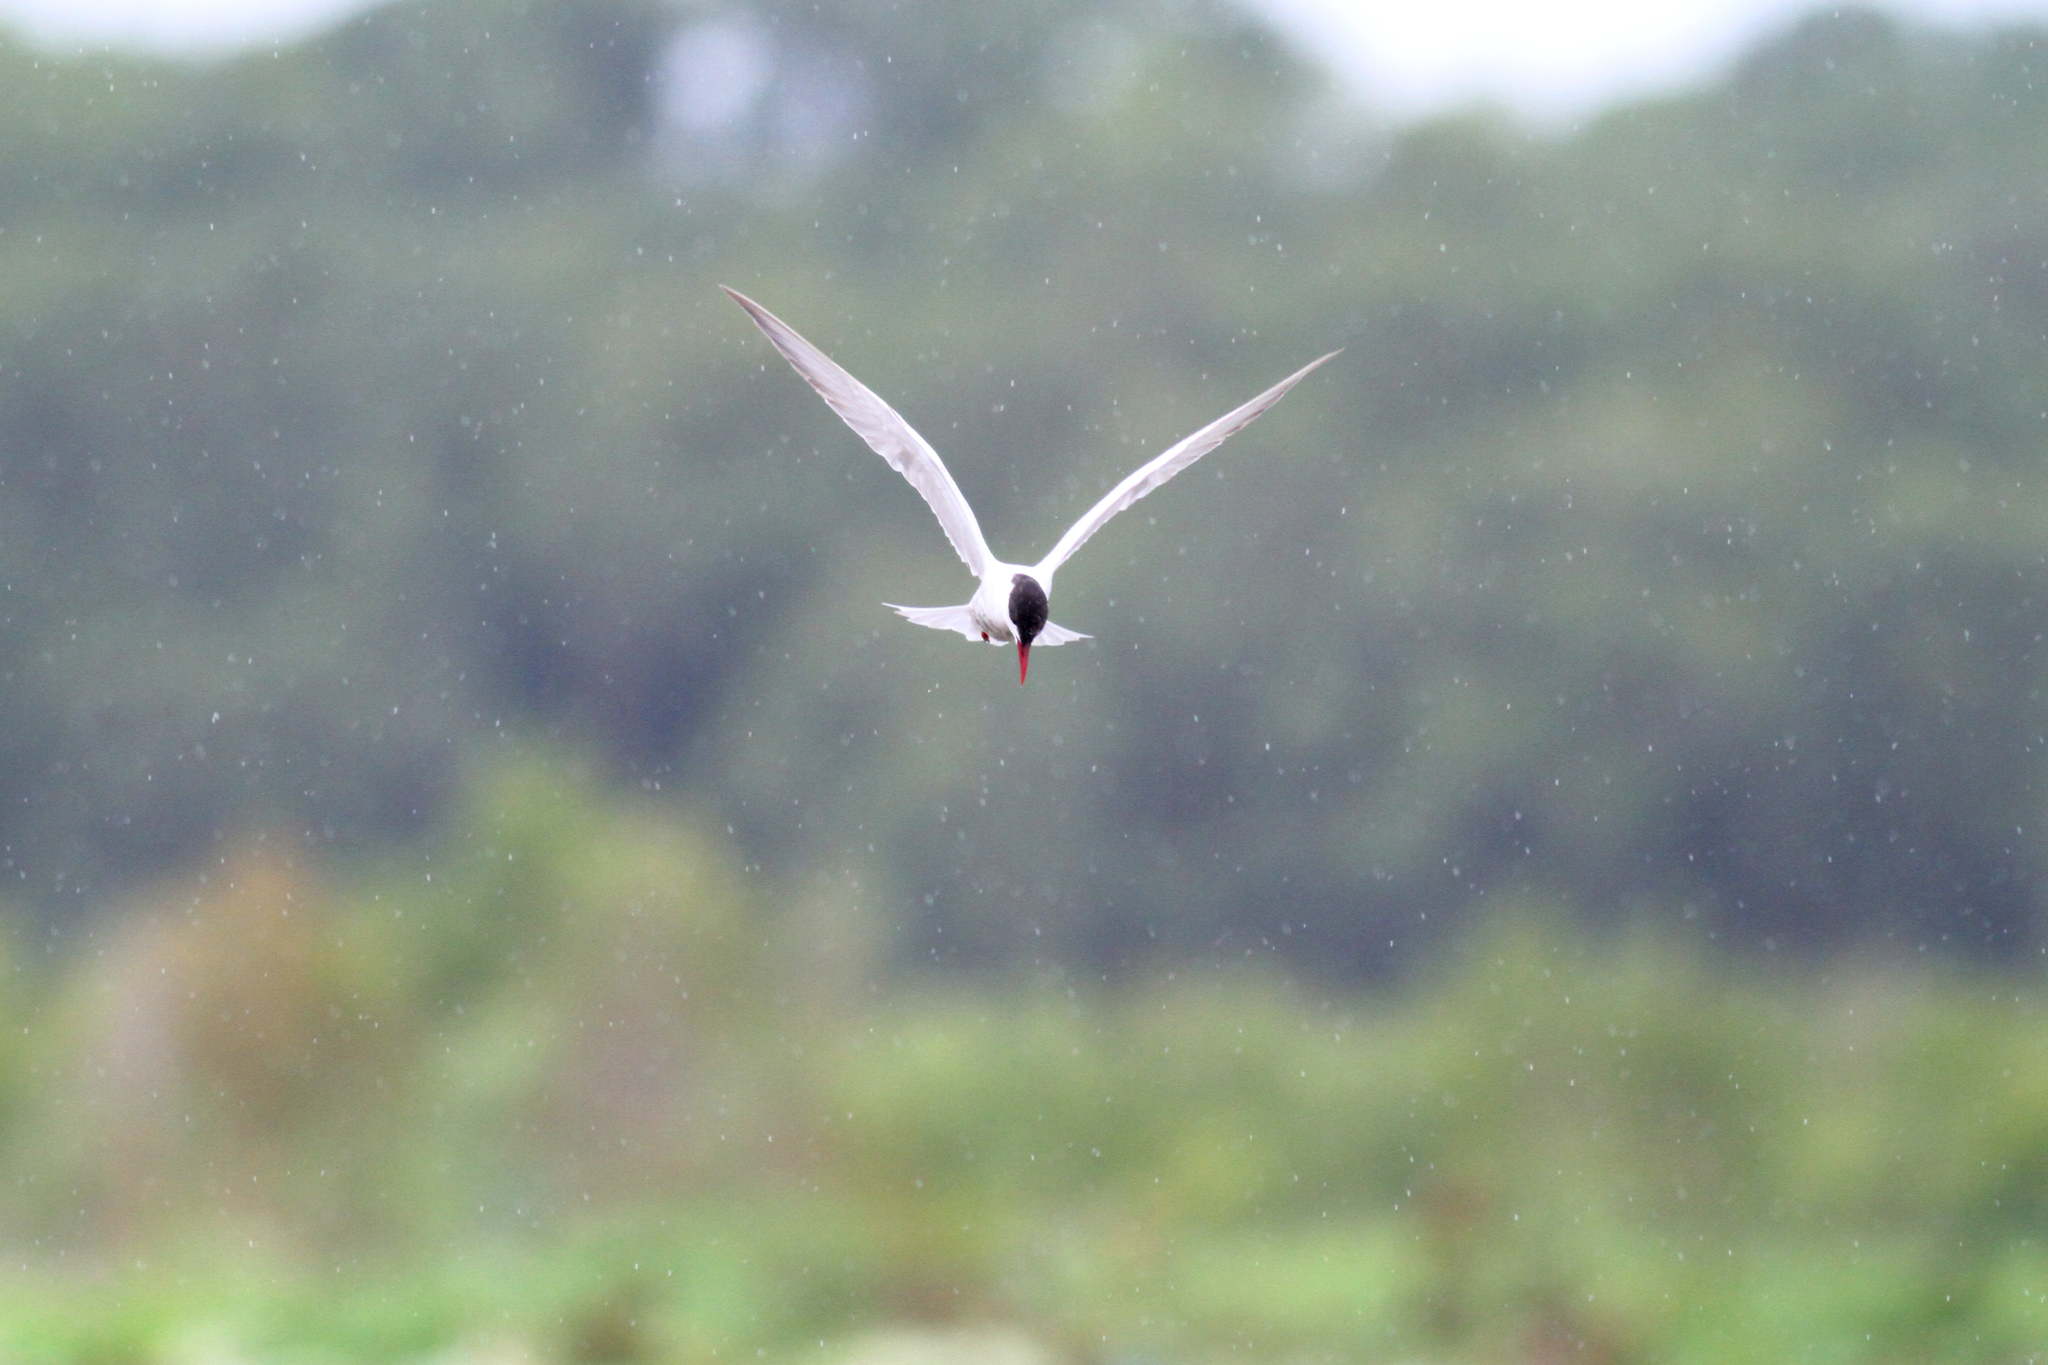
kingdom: Animalia
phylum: Chordata
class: Aves
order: Charadriiformes
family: Laridae
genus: Chlidonias
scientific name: Chlidonias hybrida
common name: Whiskered tern
